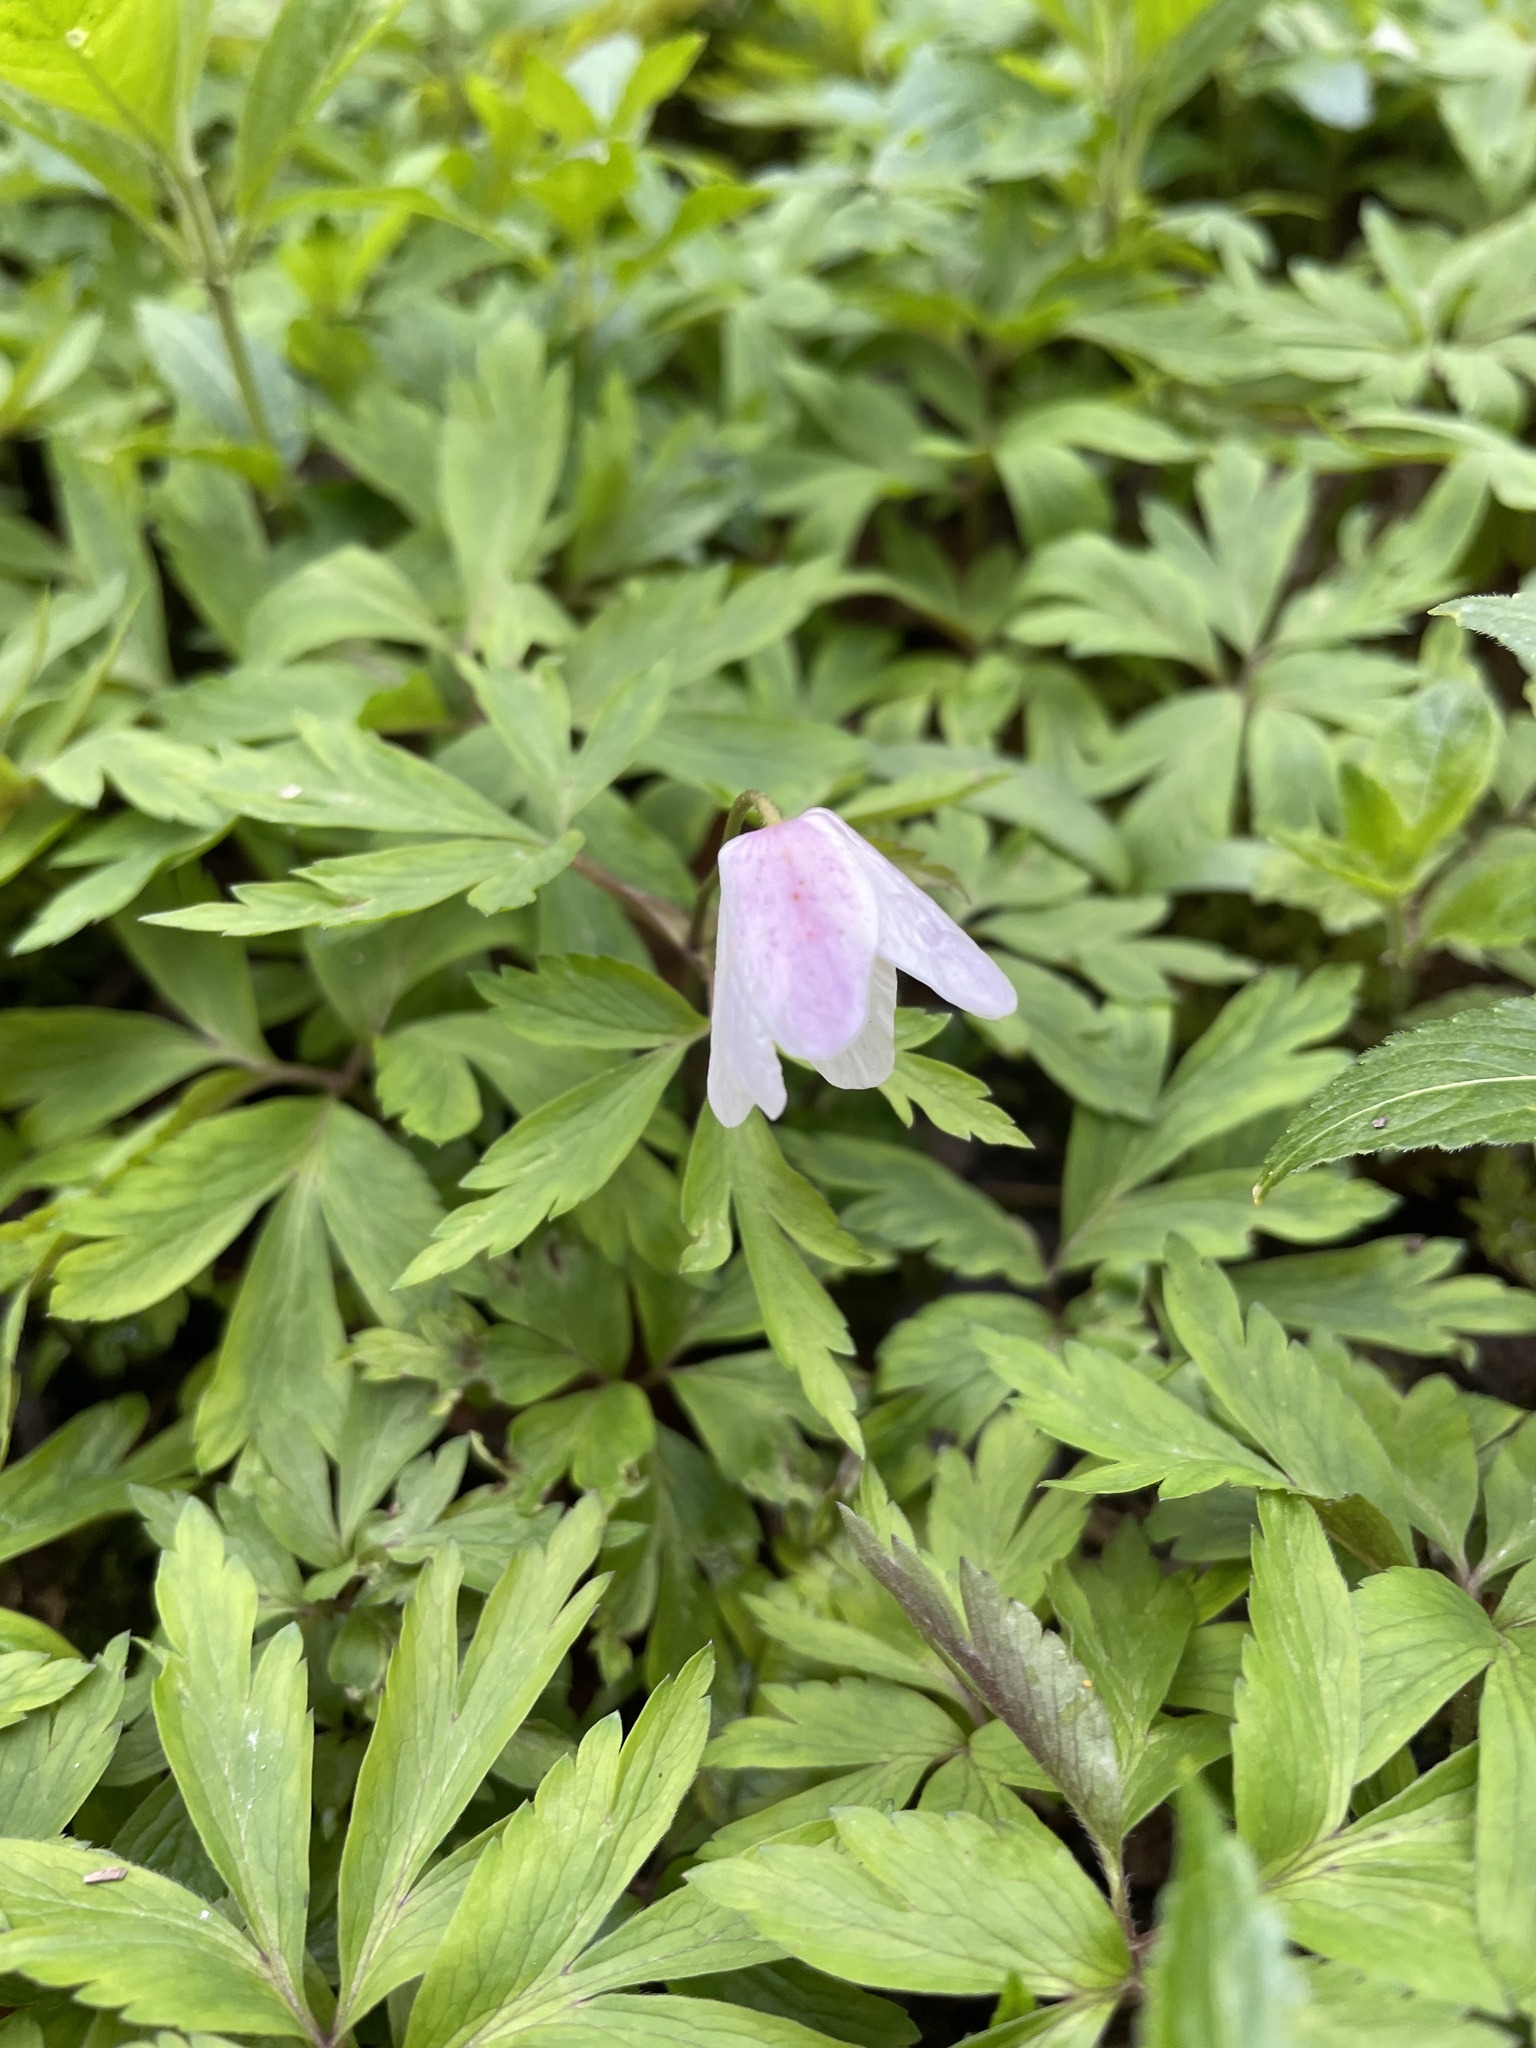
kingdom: Plantae
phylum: Tracheophyta
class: Magnoliopsida
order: Ranunculales
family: Ranunculaceae
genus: Anemone
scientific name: Anemone nemorosa
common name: Wood anemone
